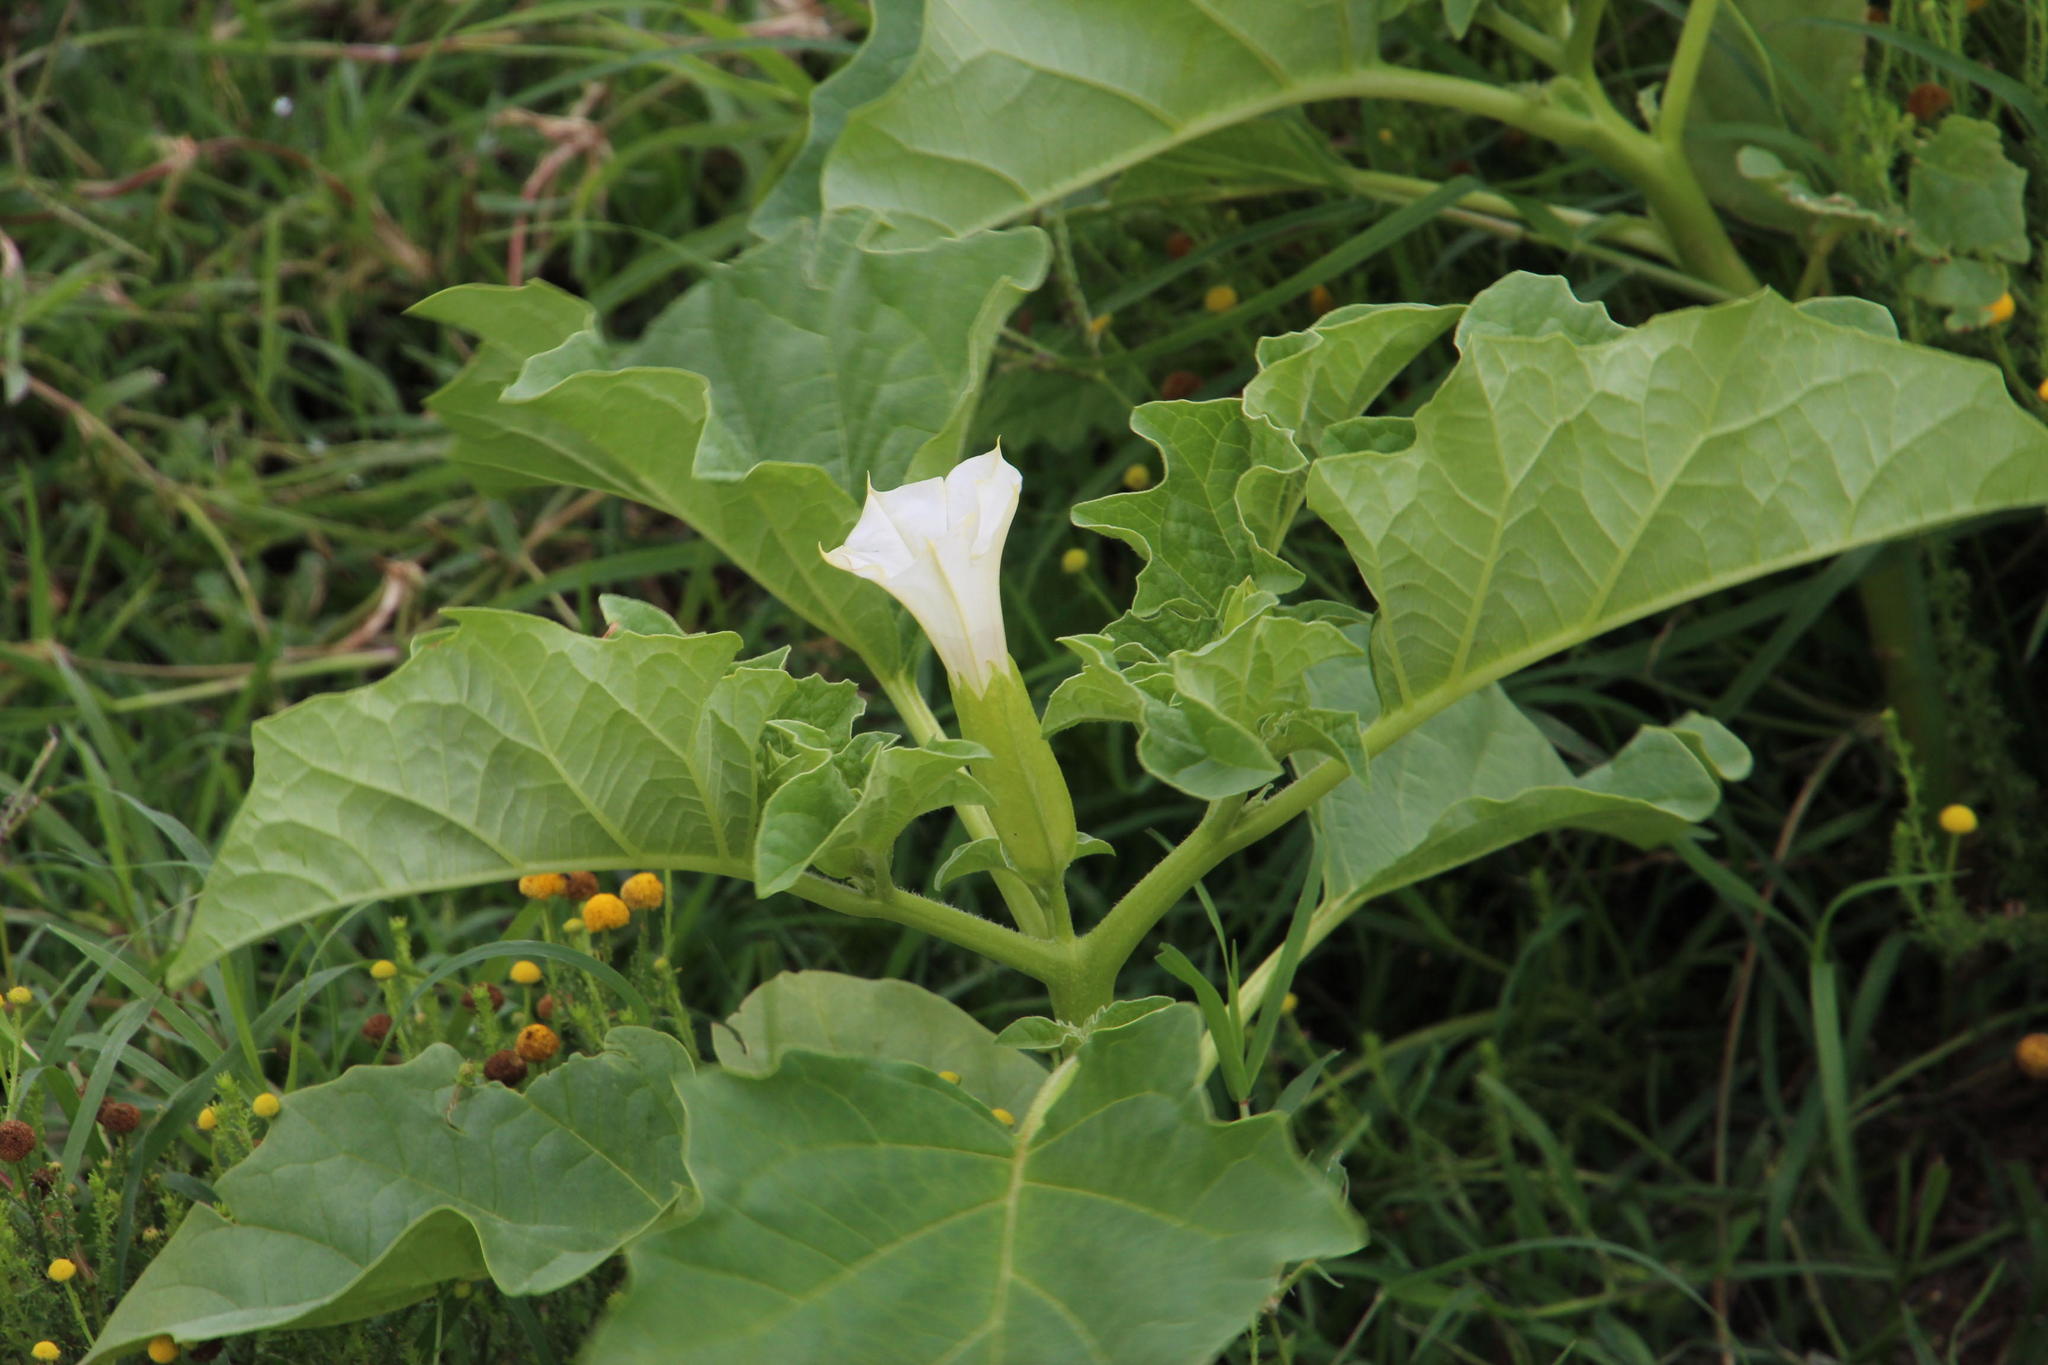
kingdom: Plantae
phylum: Tracheophyta
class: Magnoliopsida
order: Solanales
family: Solanaceae
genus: Datura
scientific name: Datura ferox
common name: Angel's-trumpets
